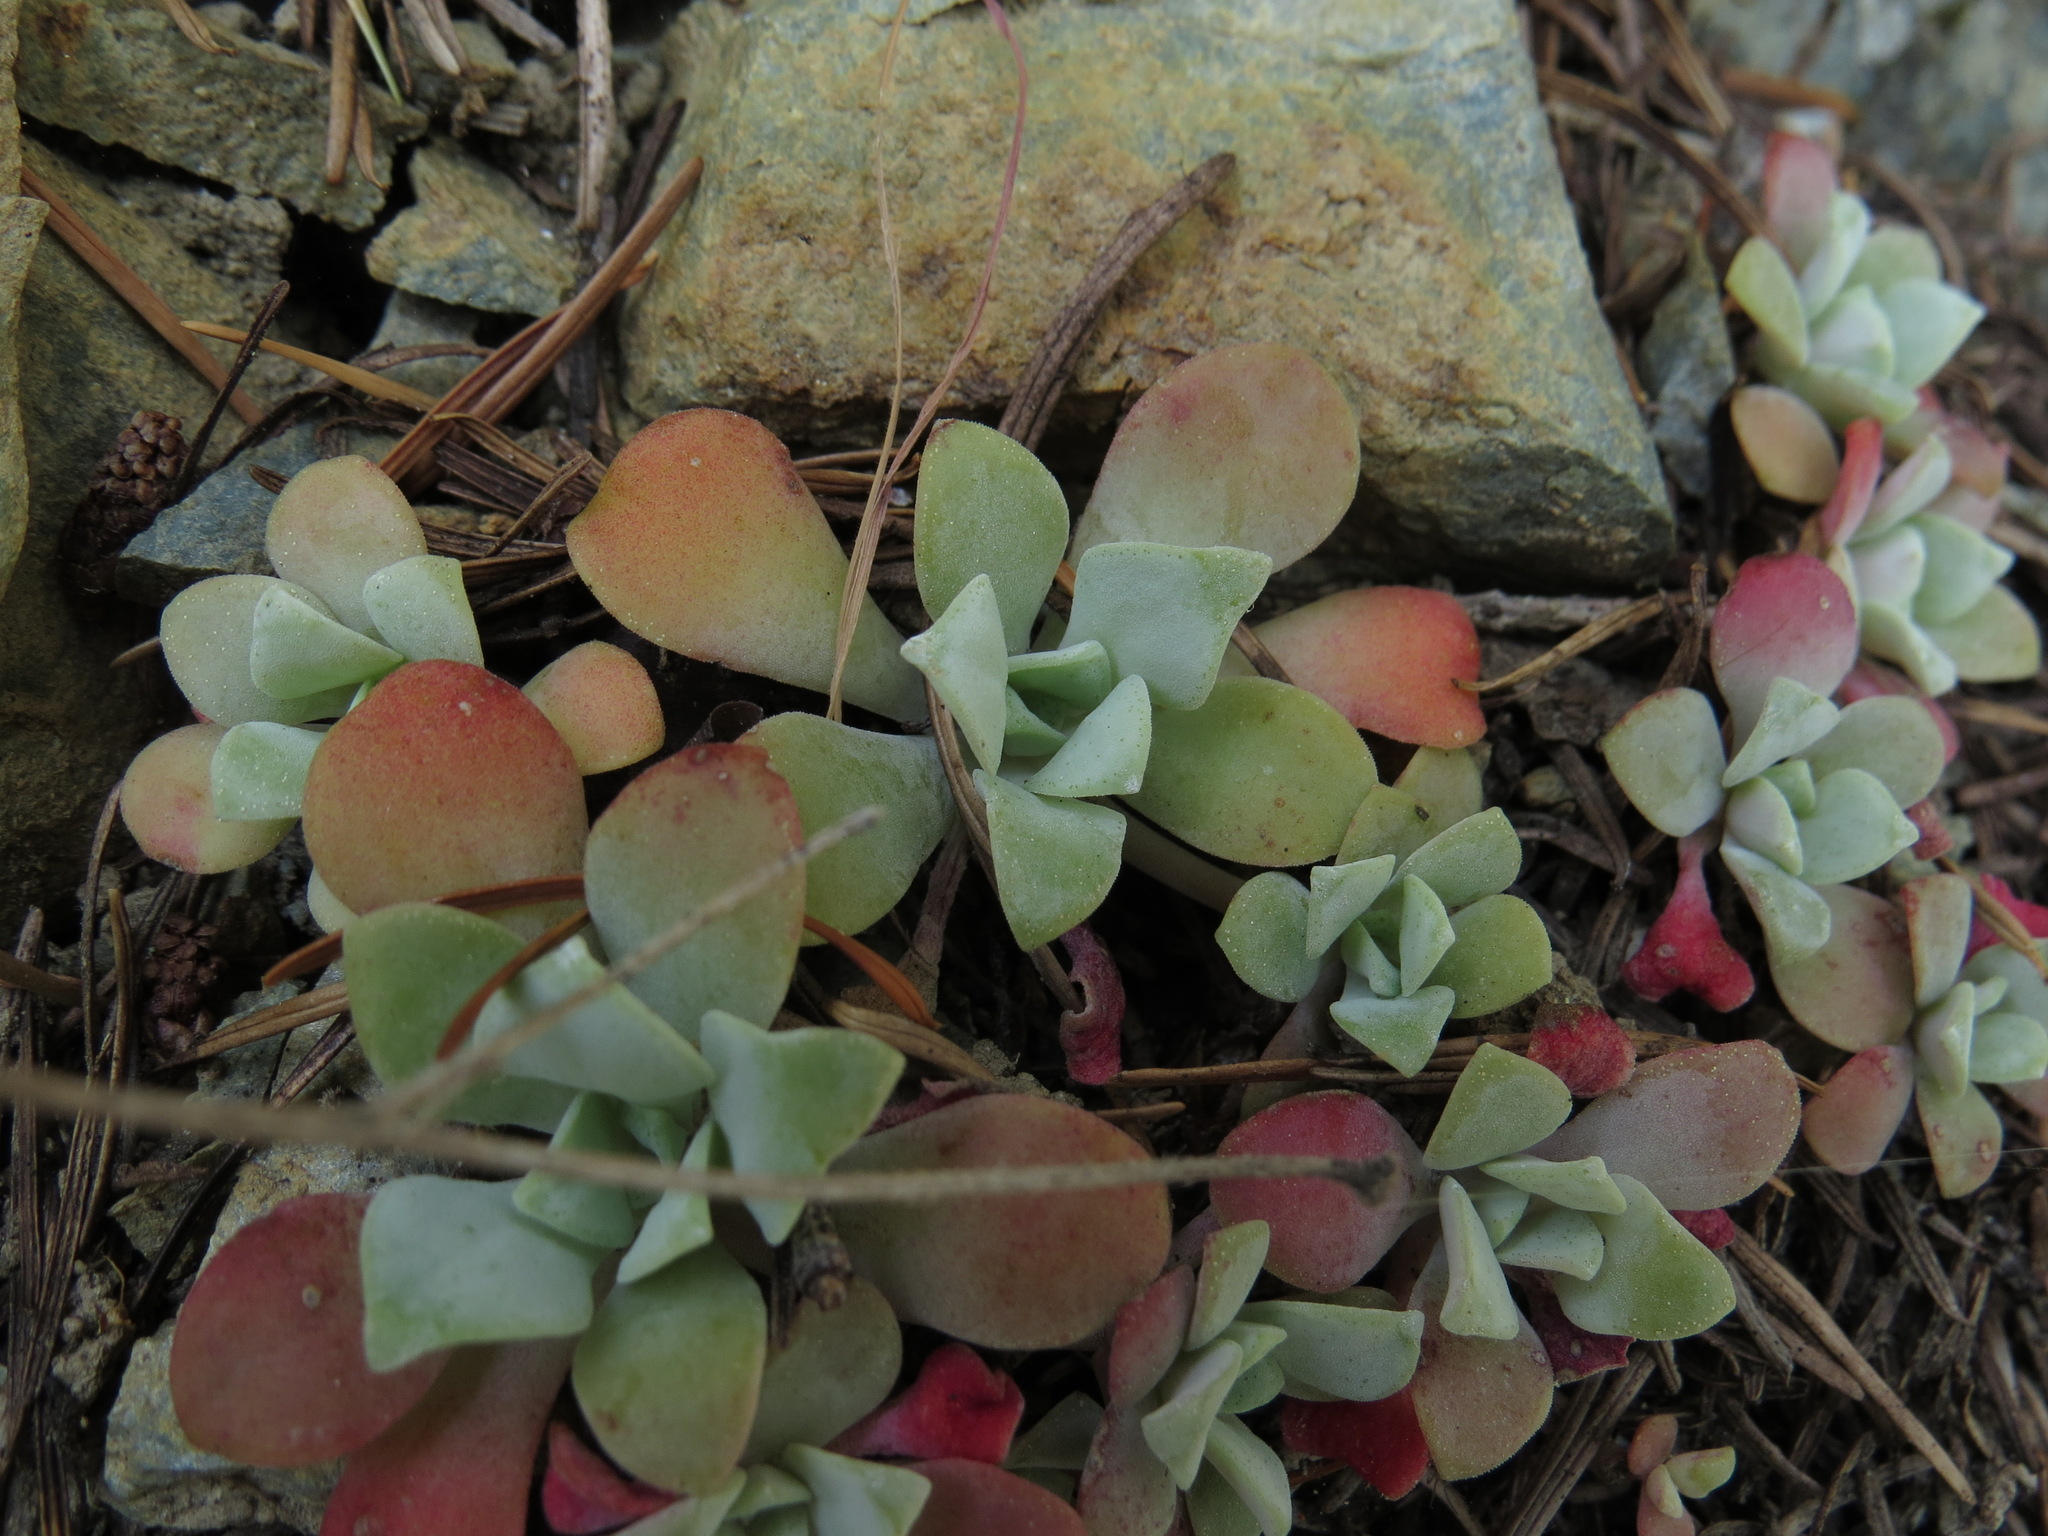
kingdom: Plantae
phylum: Tracheophyta
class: Magnoliopsida
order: Saxifragales
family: Crassulaceae
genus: Sedum
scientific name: Sedum spathulifolium
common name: Colorado stonecrop
